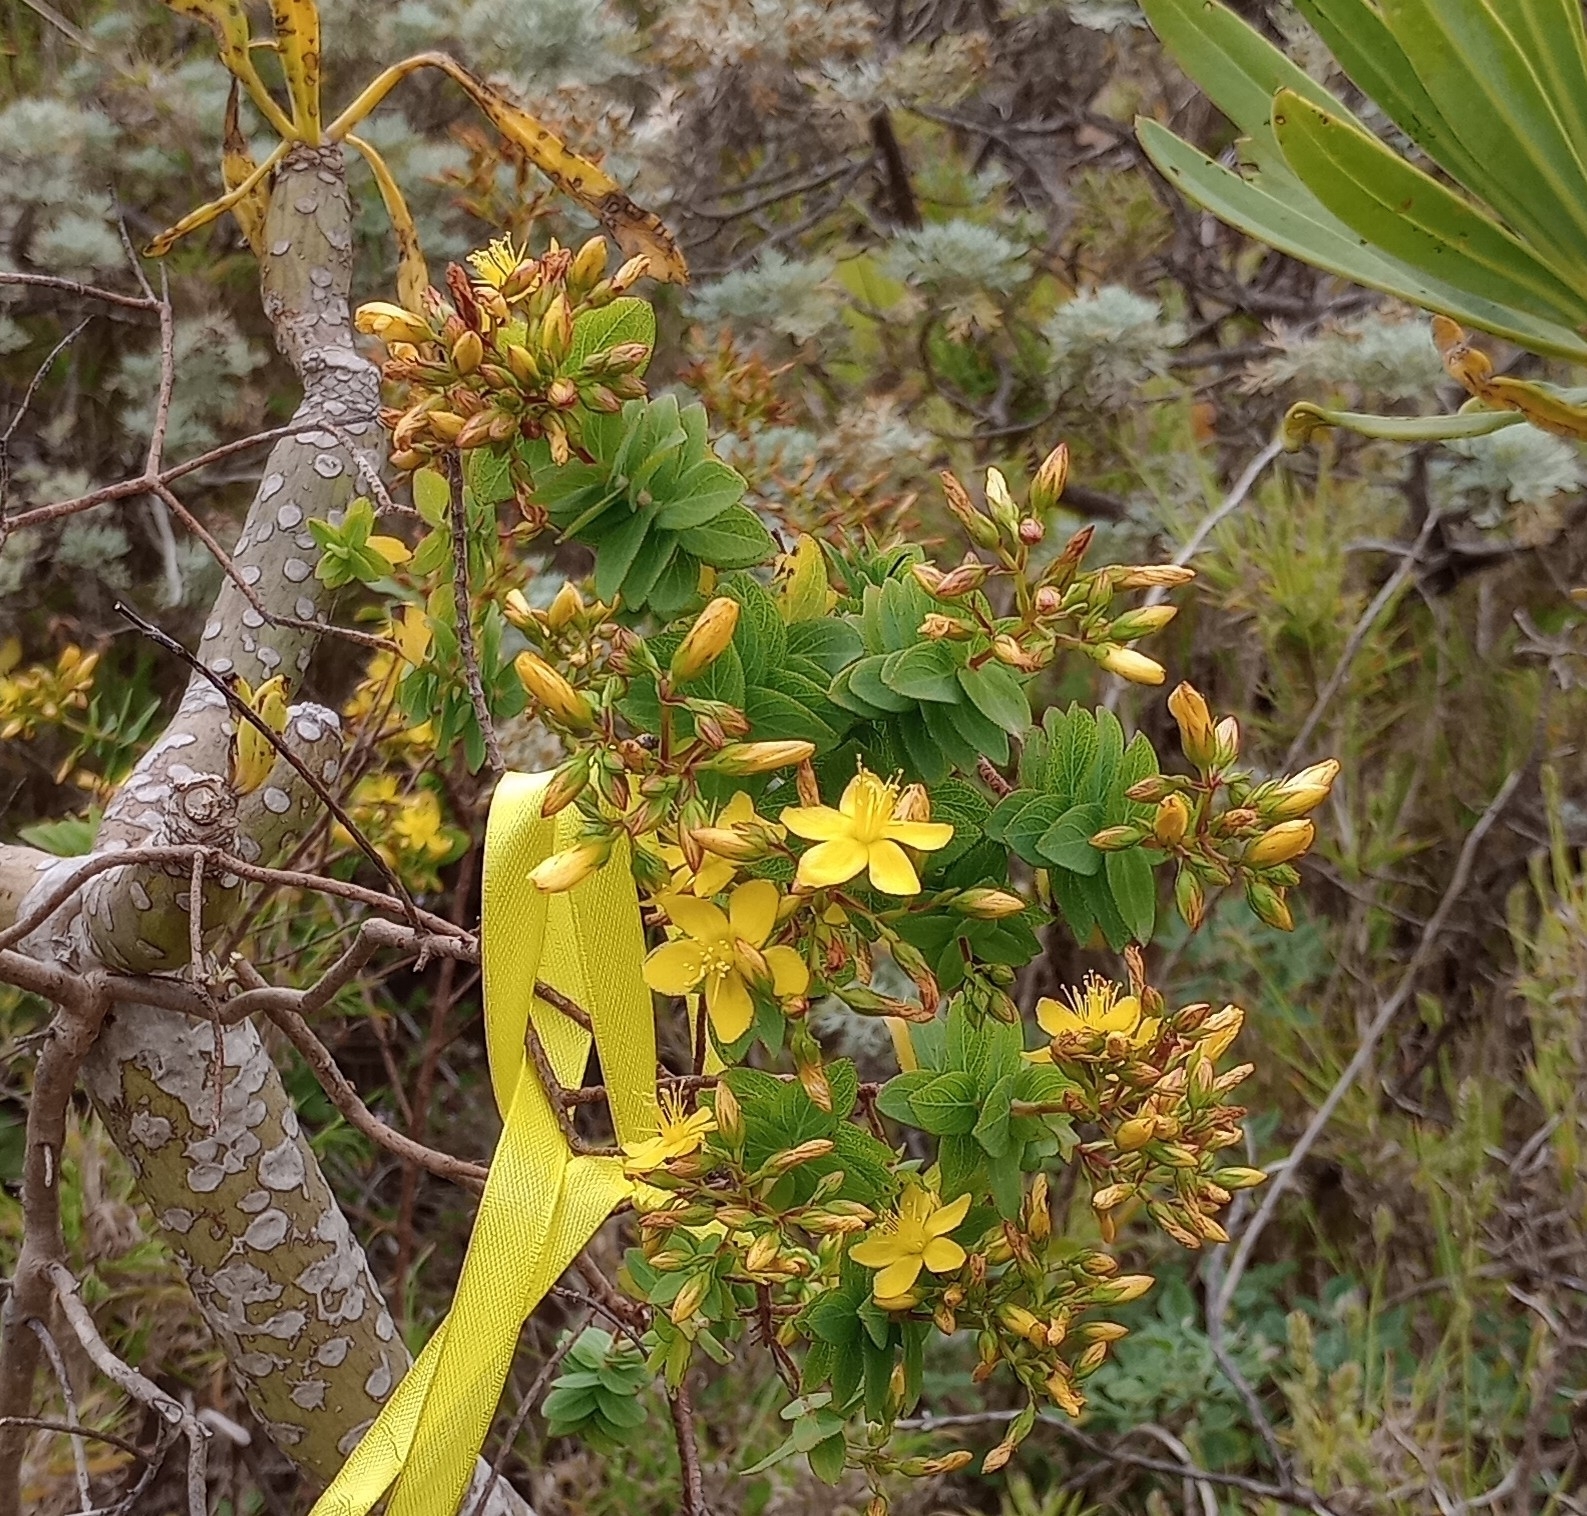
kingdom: Plantae
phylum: Tracheophyta
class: Magnoliopsida
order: Malpighiales
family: Hypericaceae
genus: Hypericum
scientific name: Hypericum reflexum
